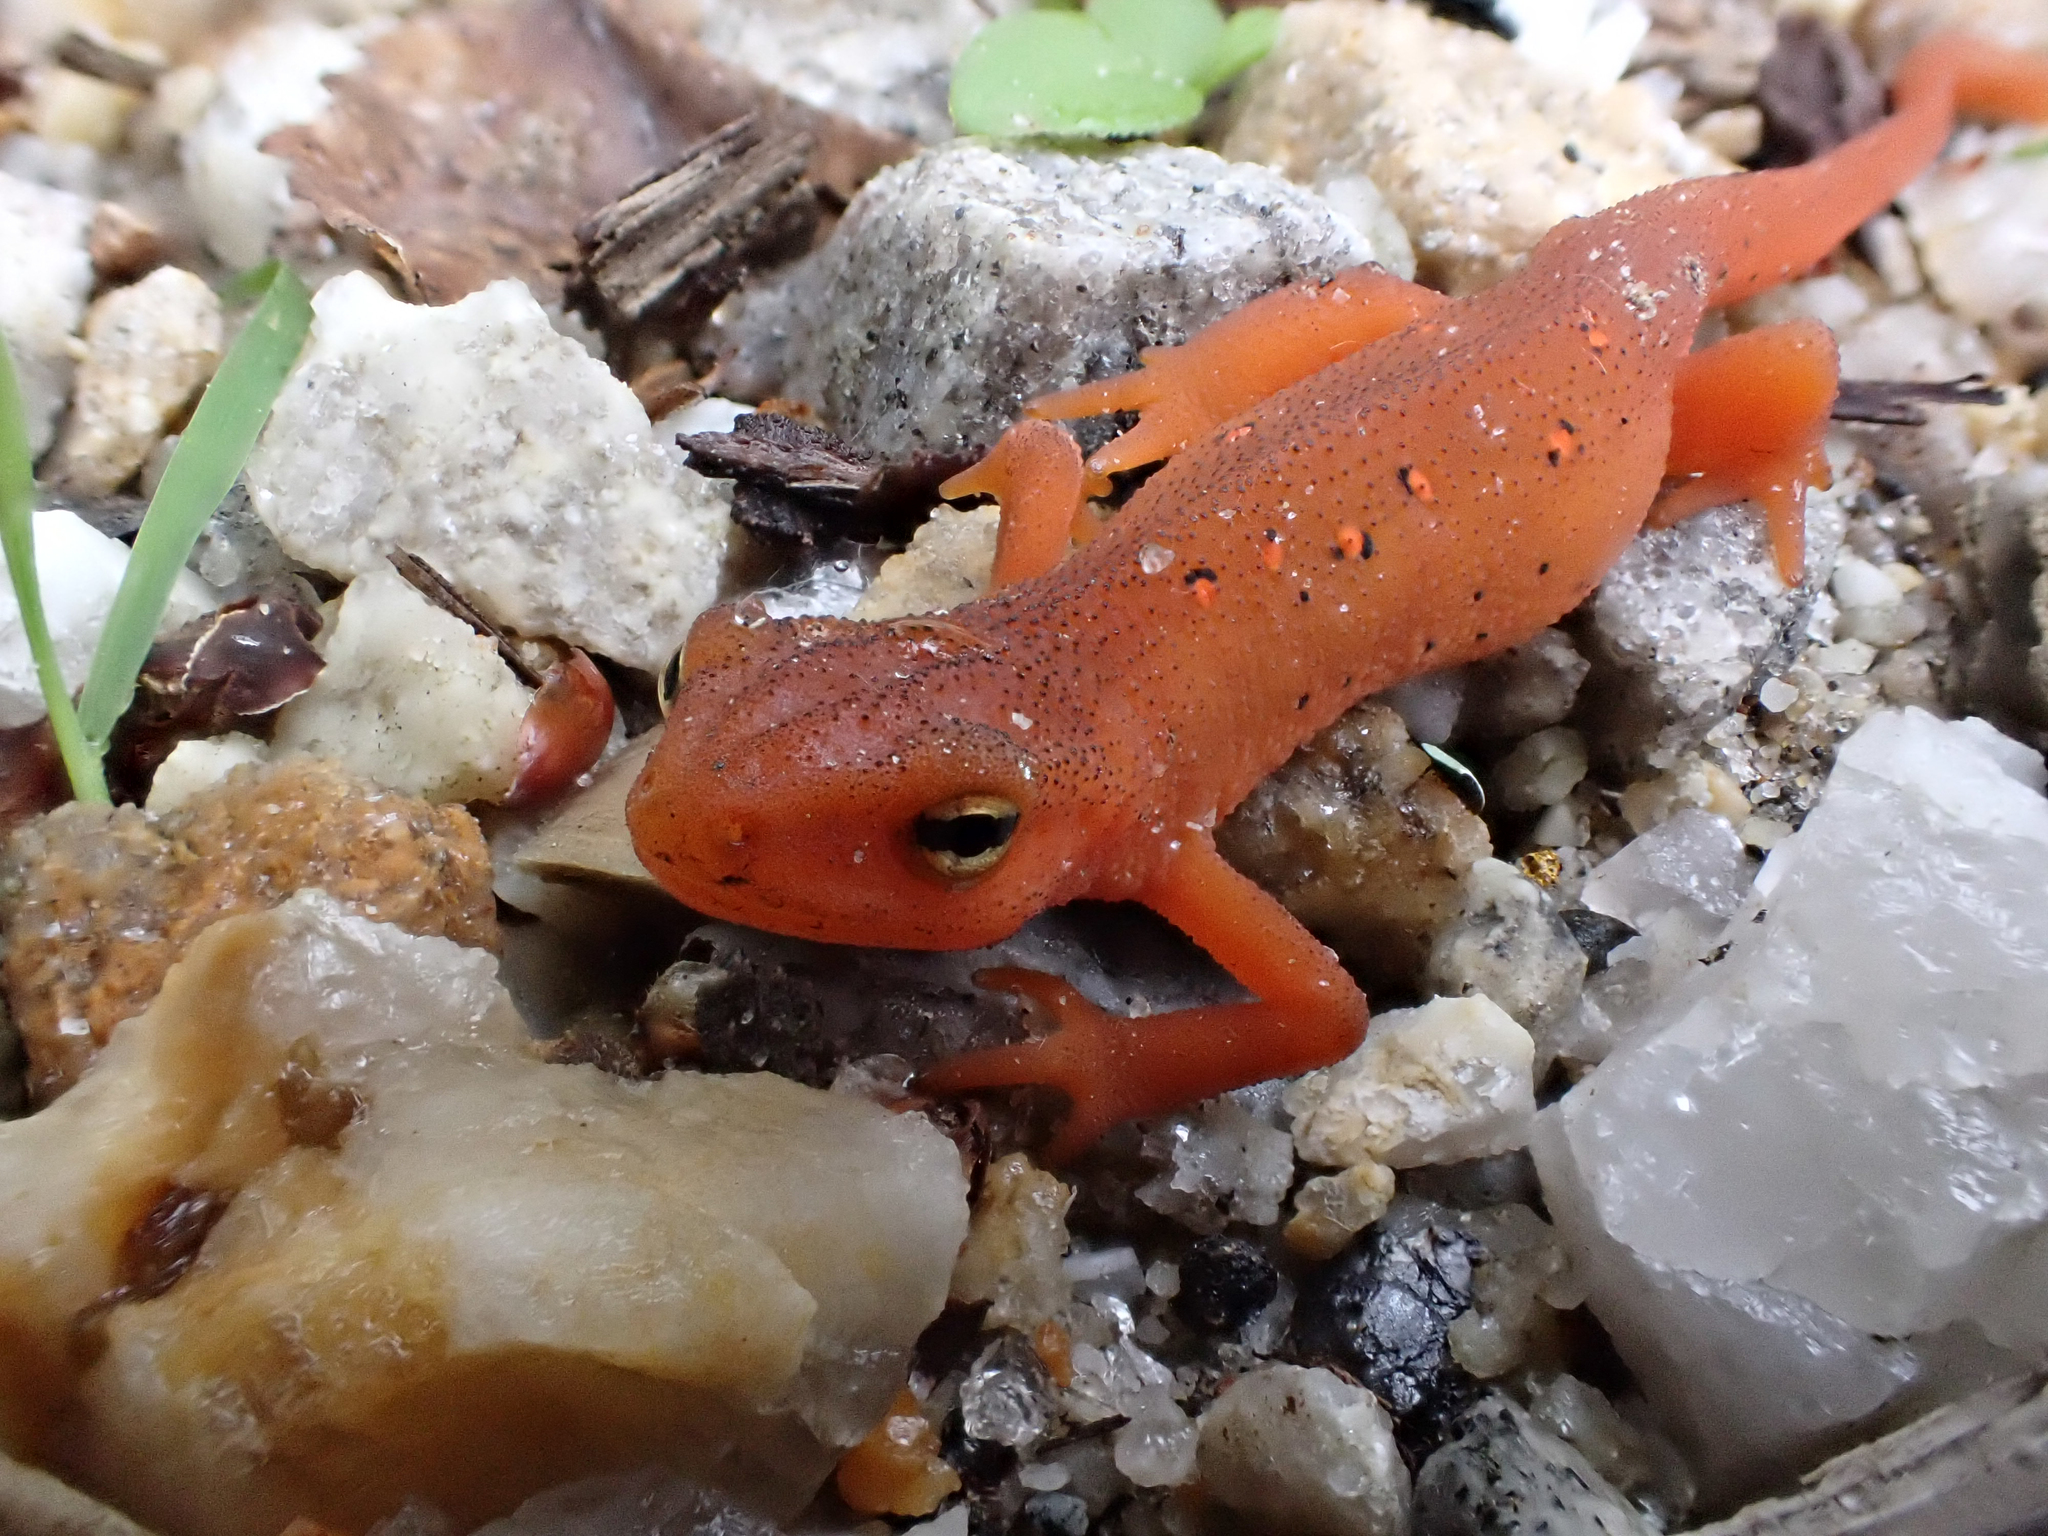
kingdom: Animalia
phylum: Chordata
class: Amphibia
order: Caudata
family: Salamandridae
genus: Notophthalmus
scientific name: Notophthalmus viridescens
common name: Eastern newt
